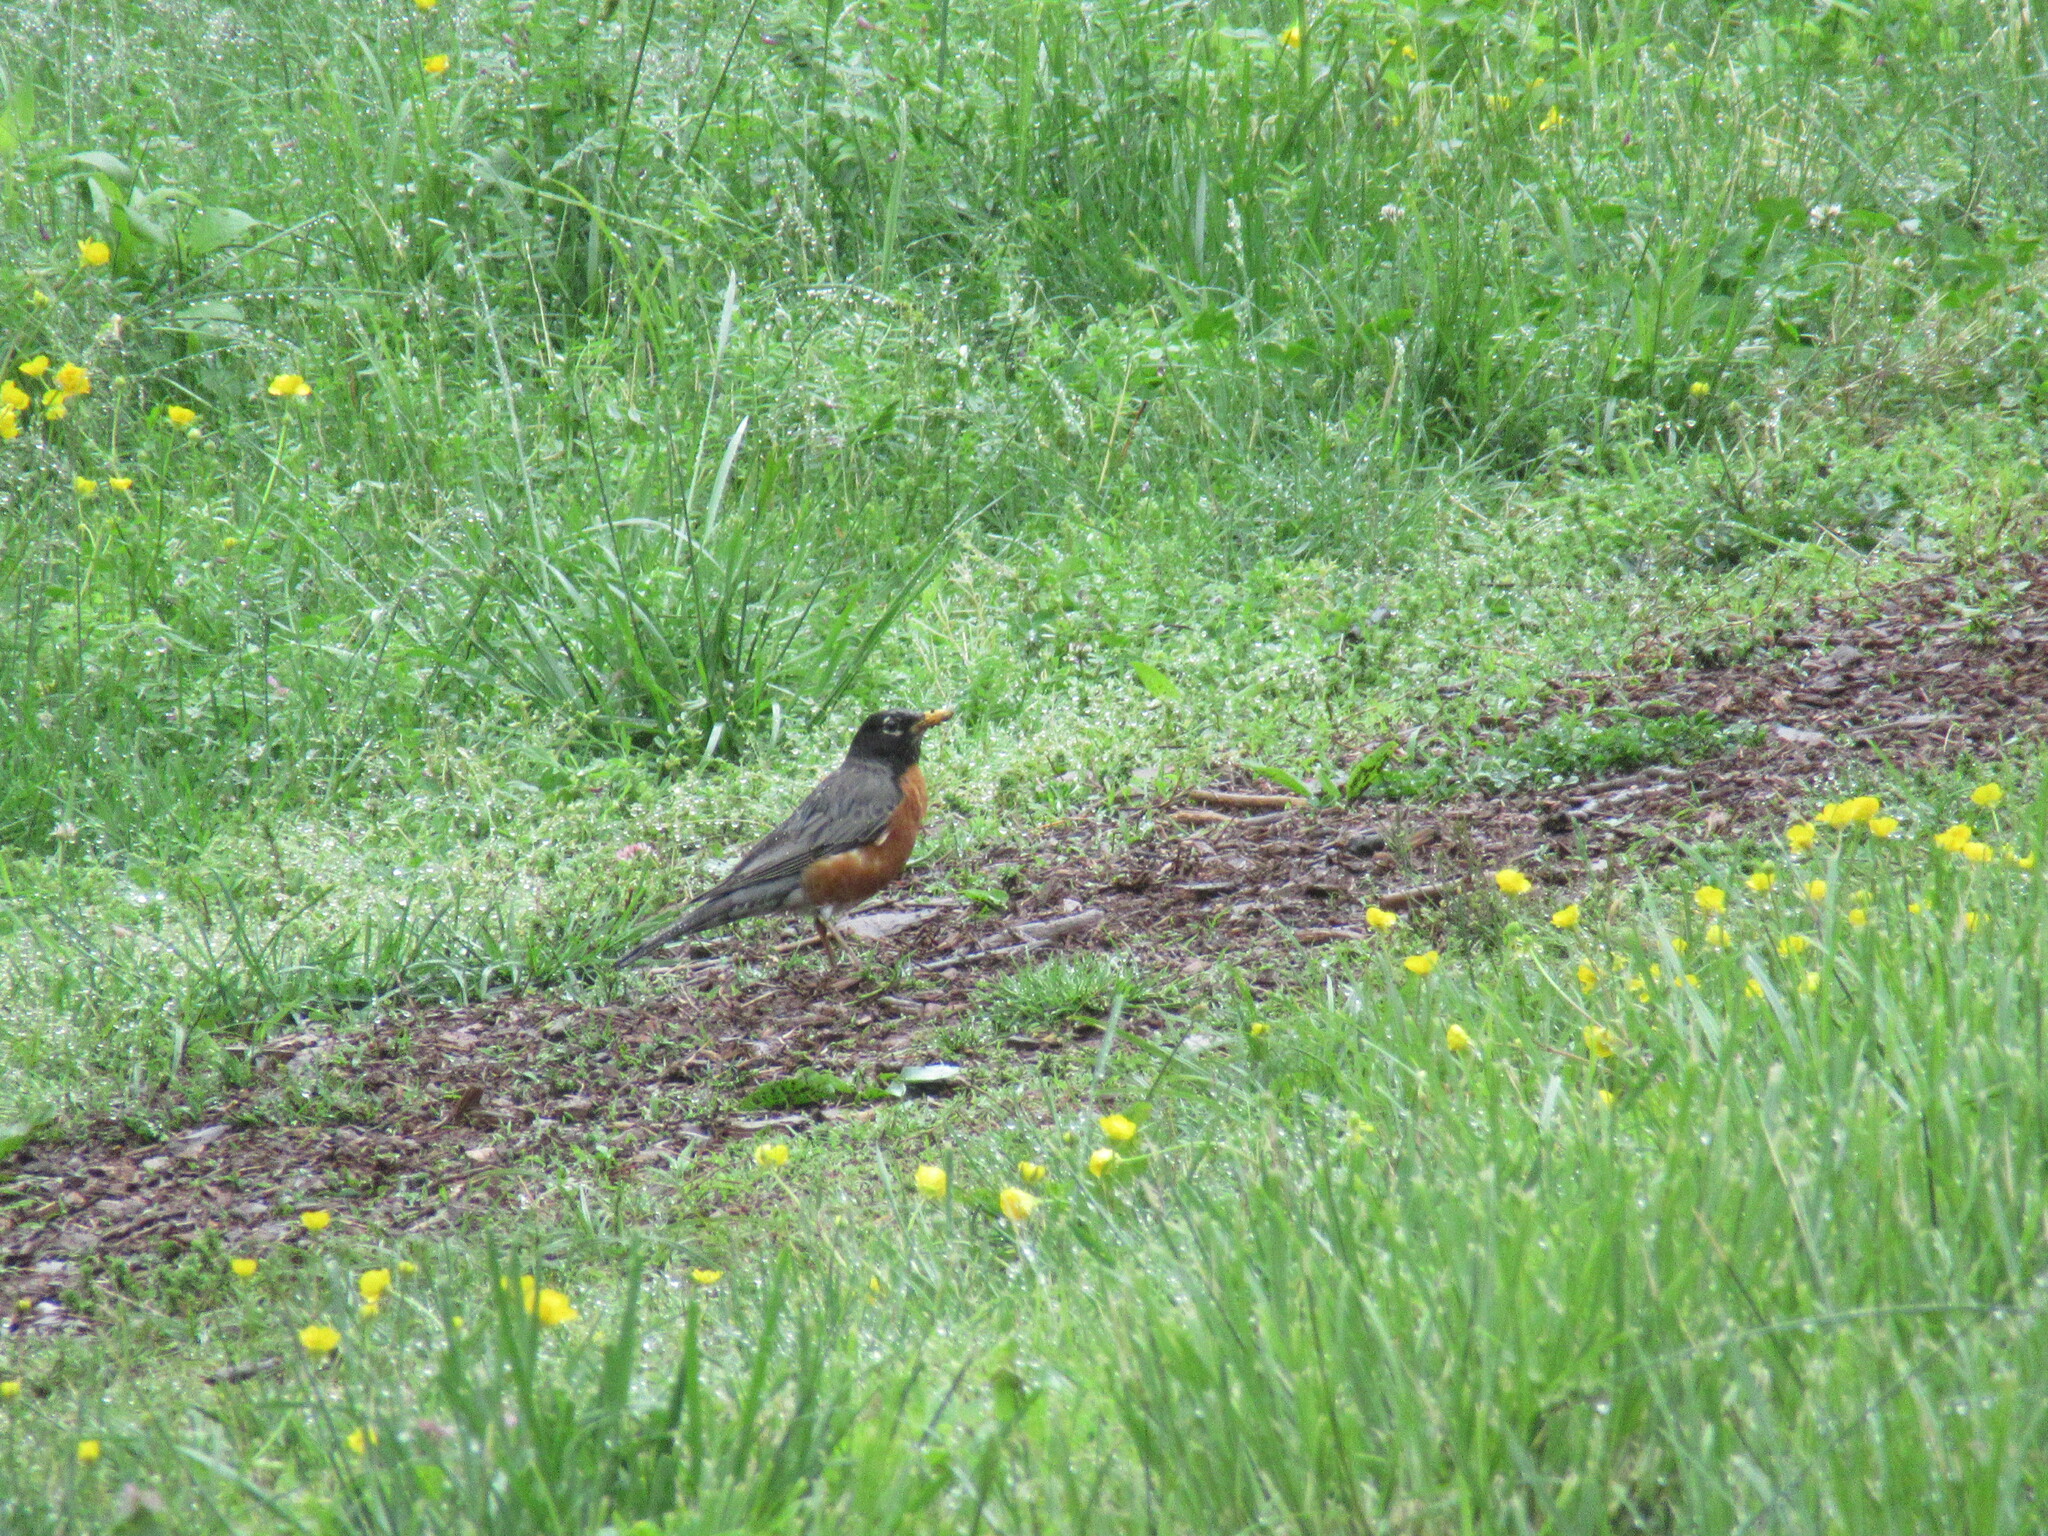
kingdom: Animalia
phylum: Chordata
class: Aves
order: Passeriformes
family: Turdidae
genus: Turdus
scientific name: Turdus migratorius
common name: American robin
